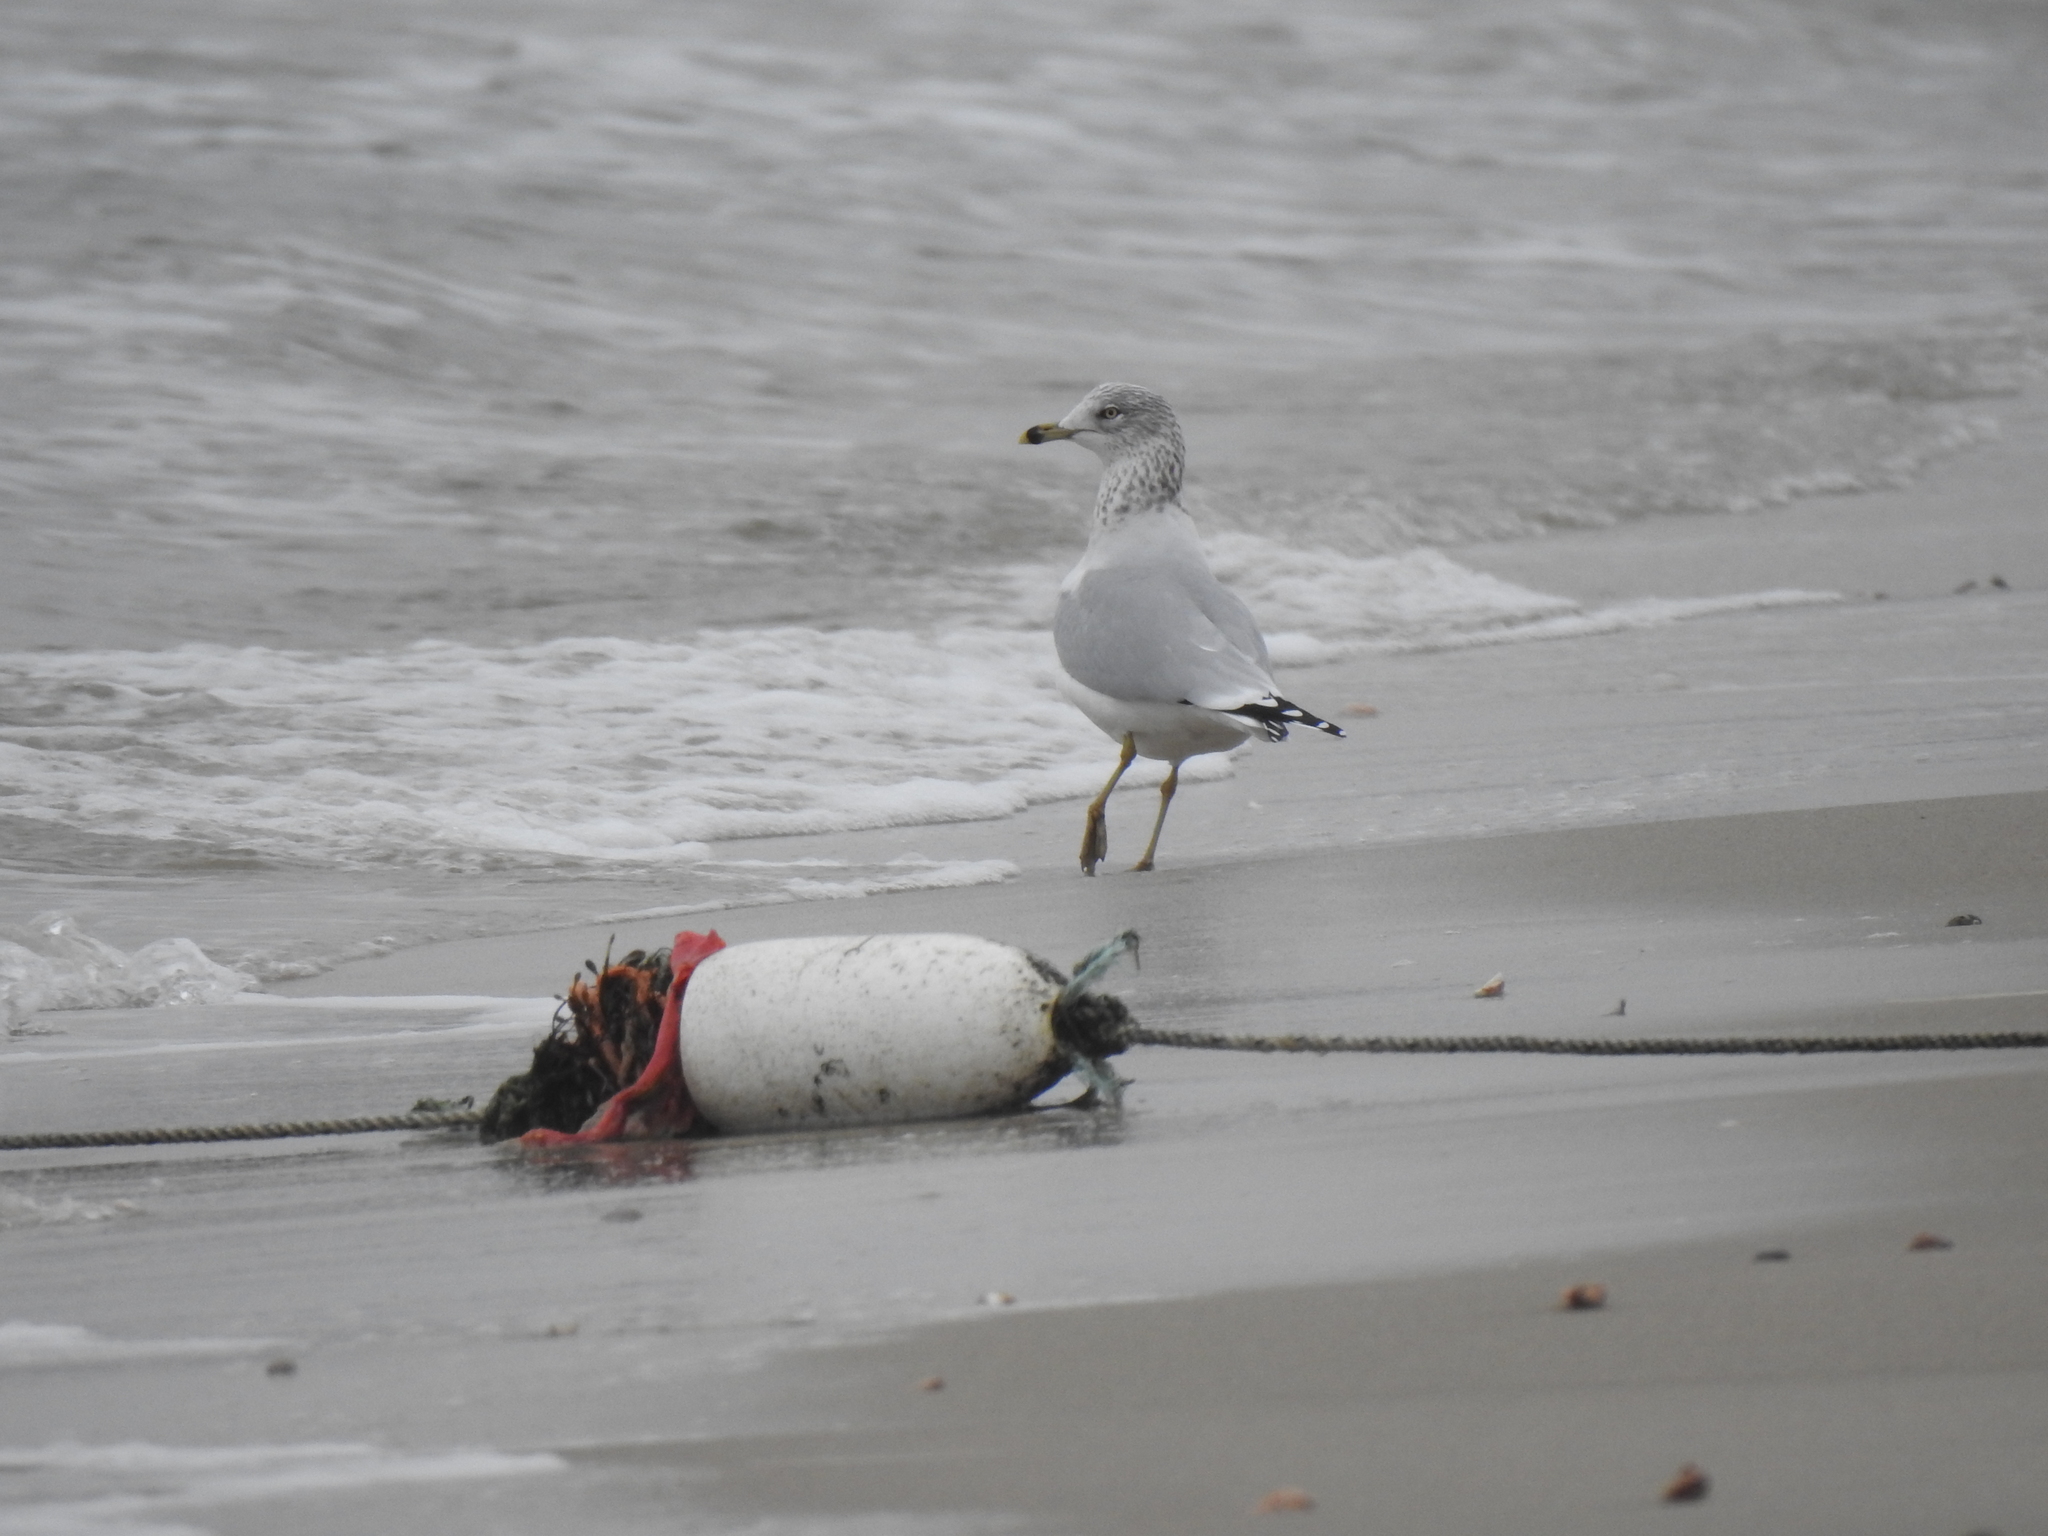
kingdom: Animalia
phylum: Chordata
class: Aves
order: Charadriiformes
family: Laridae
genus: Larus
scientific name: Larus delawarensis
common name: Ring-billed gull
